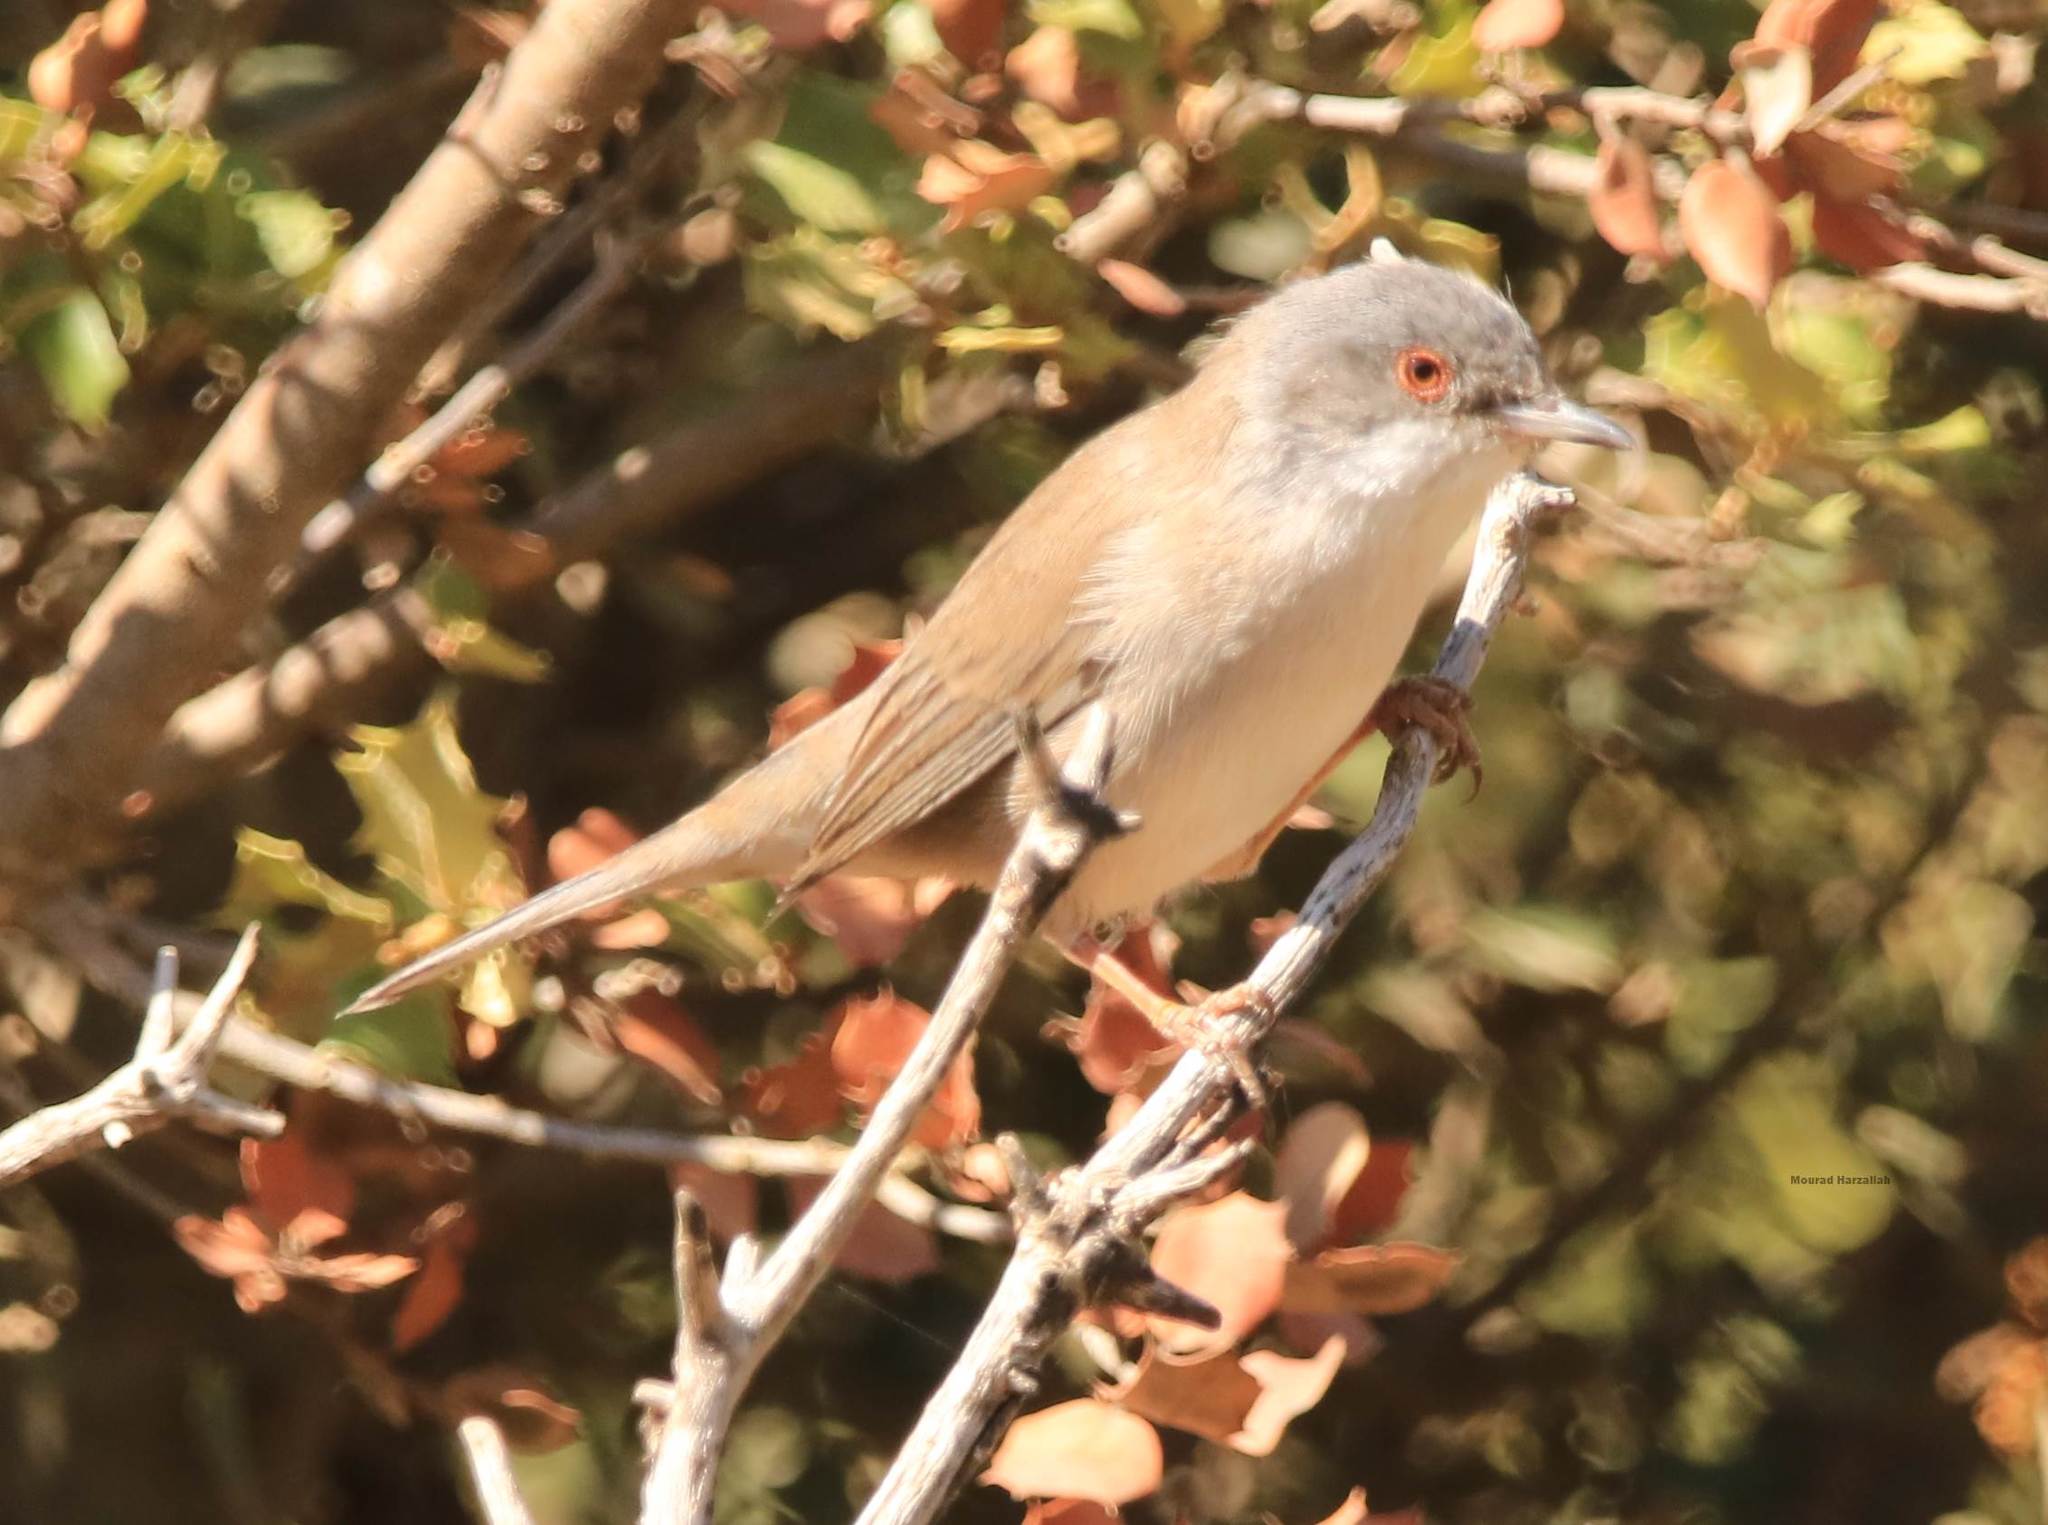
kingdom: Animalia
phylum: Chordata
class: Aves
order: Passeriformes
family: Sylviidae
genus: Curruca
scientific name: Curruca melanocephala
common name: Sardinian warbler
